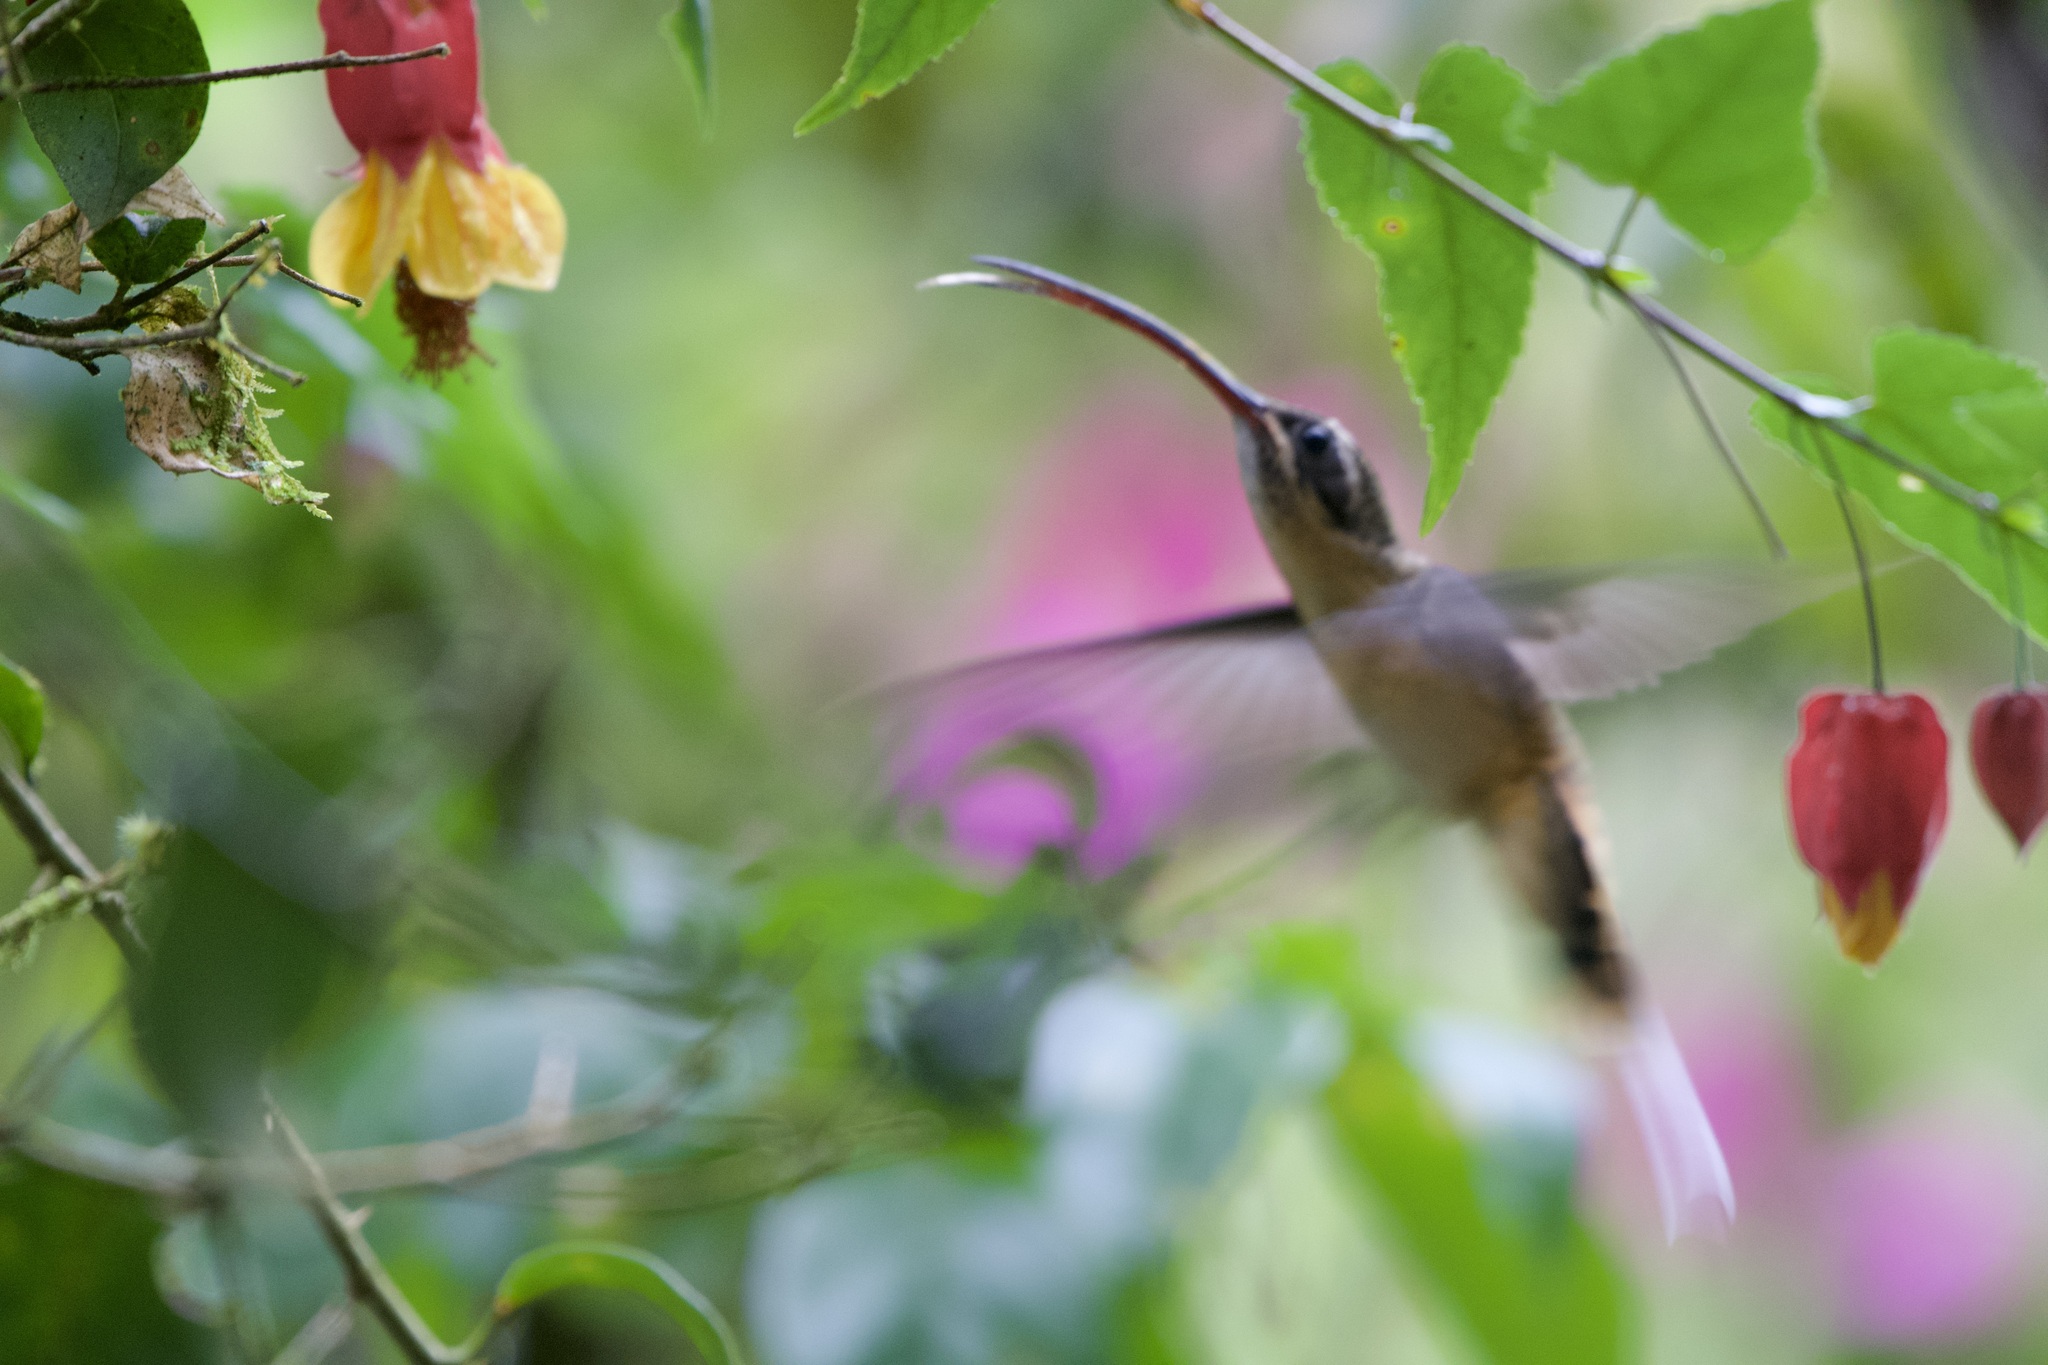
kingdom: Animalia
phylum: Chordata
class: Aves
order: Apodiformes
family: Trochilidae
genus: Phaethornis
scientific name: Phaethornis syrmatophorus
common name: Tawny-bellied hermit
